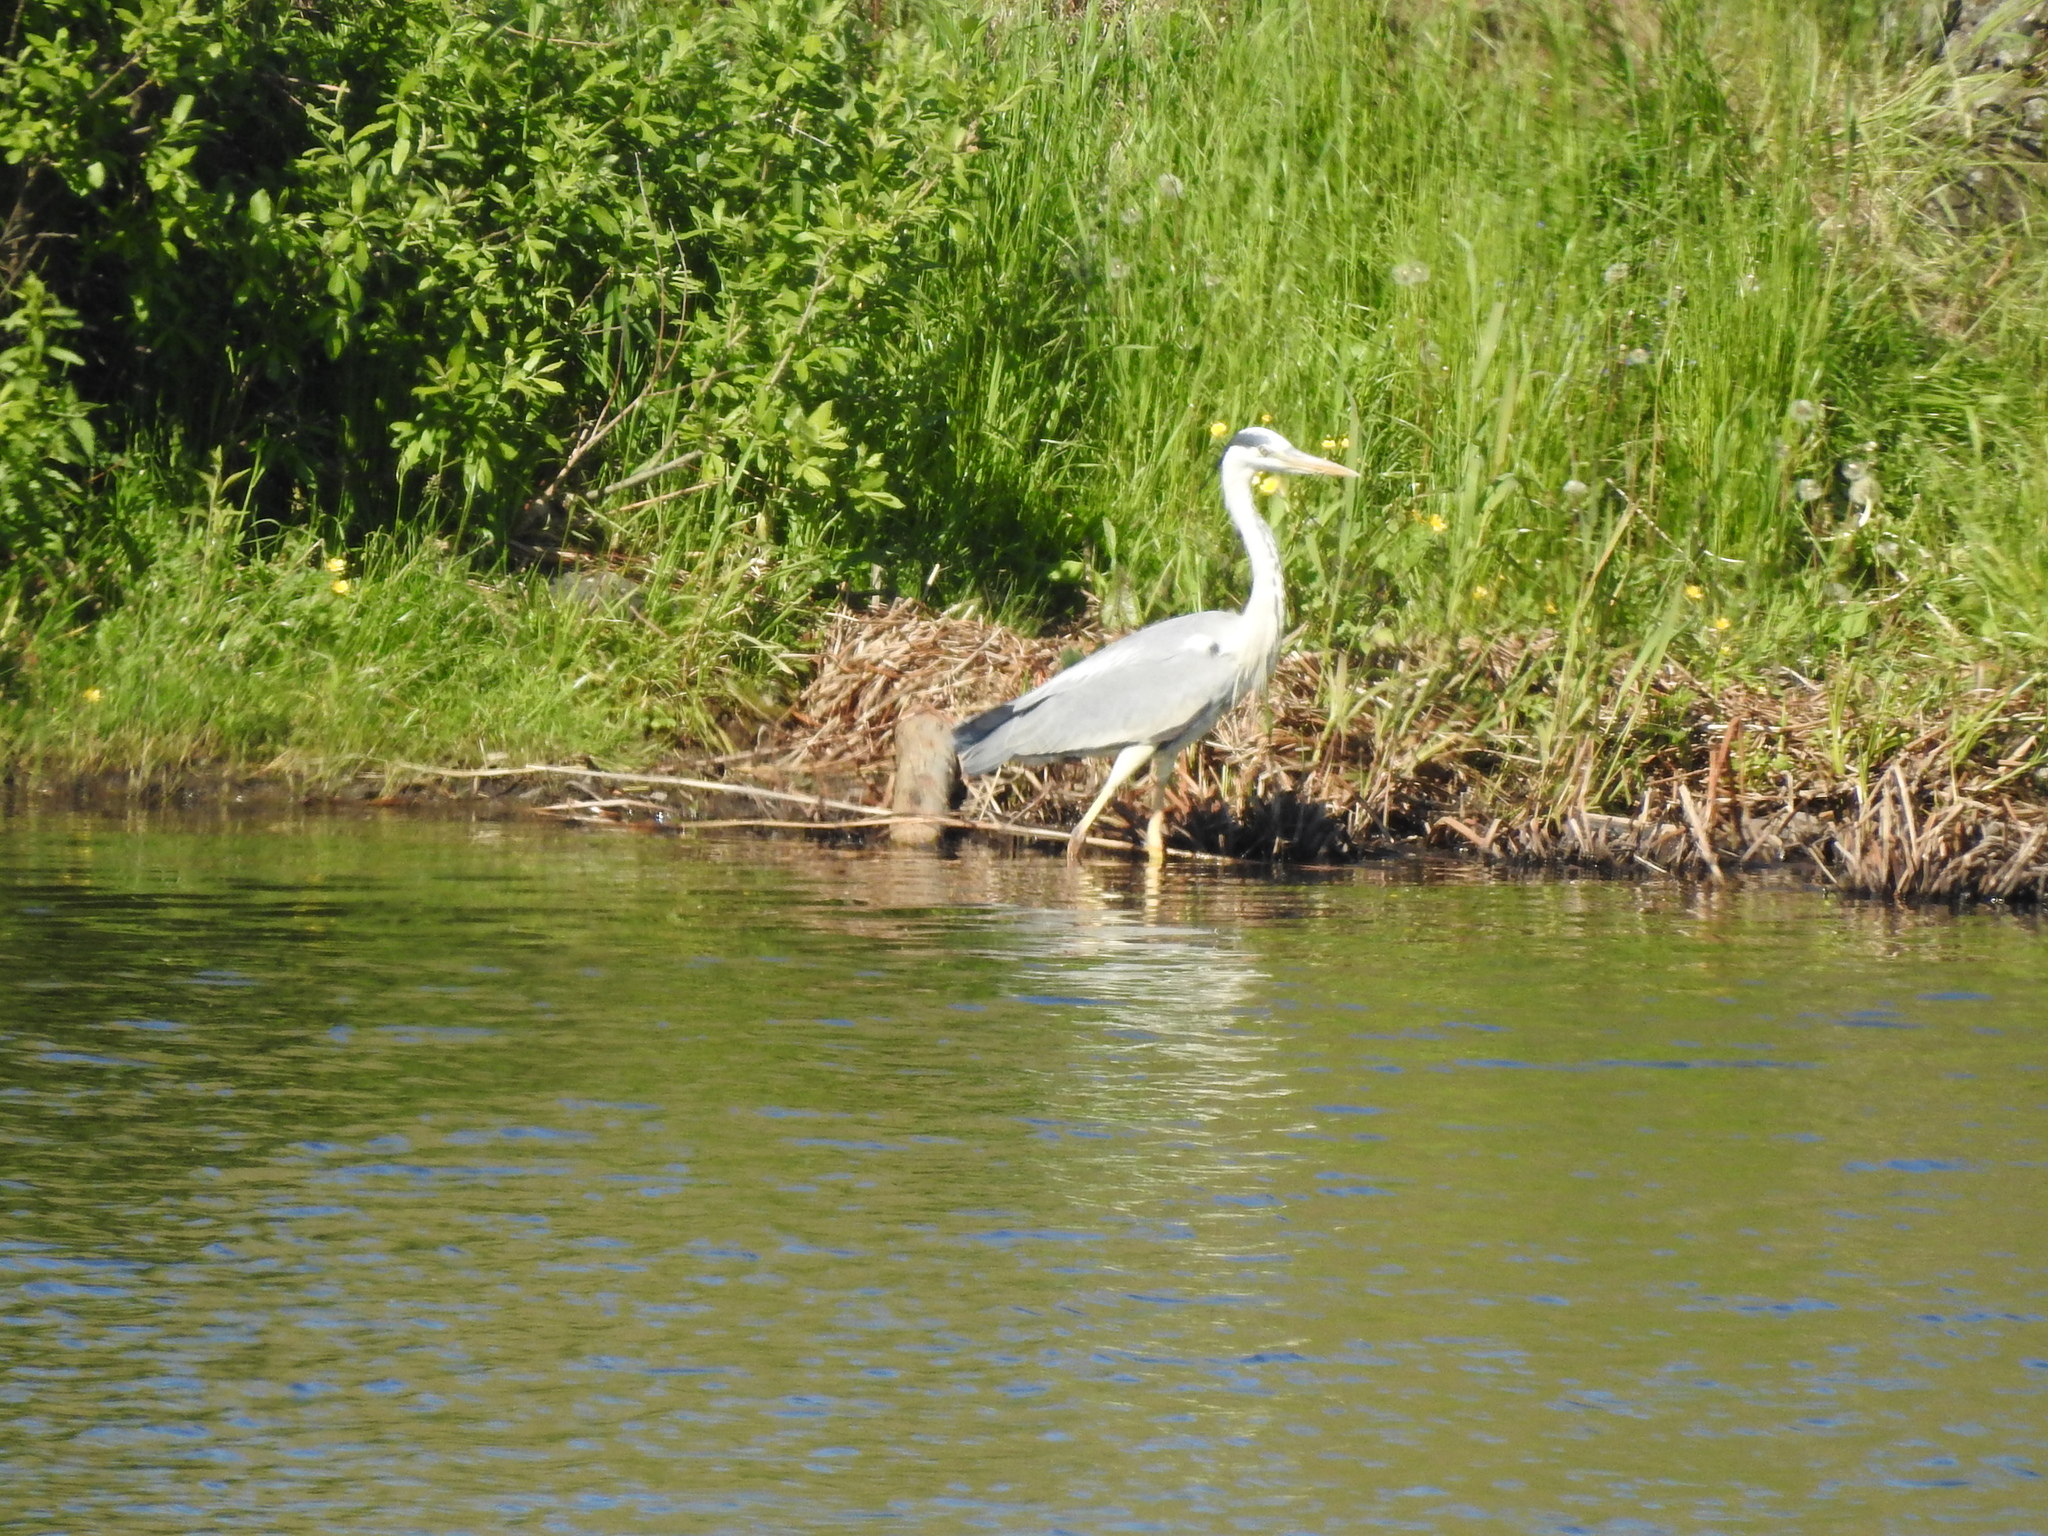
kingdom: Animalia
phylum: Chordata
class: Aves
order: Pelecaniformes
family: Ardeidae
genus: Ardea
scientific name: Ardea cinerea
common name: Grey heron
